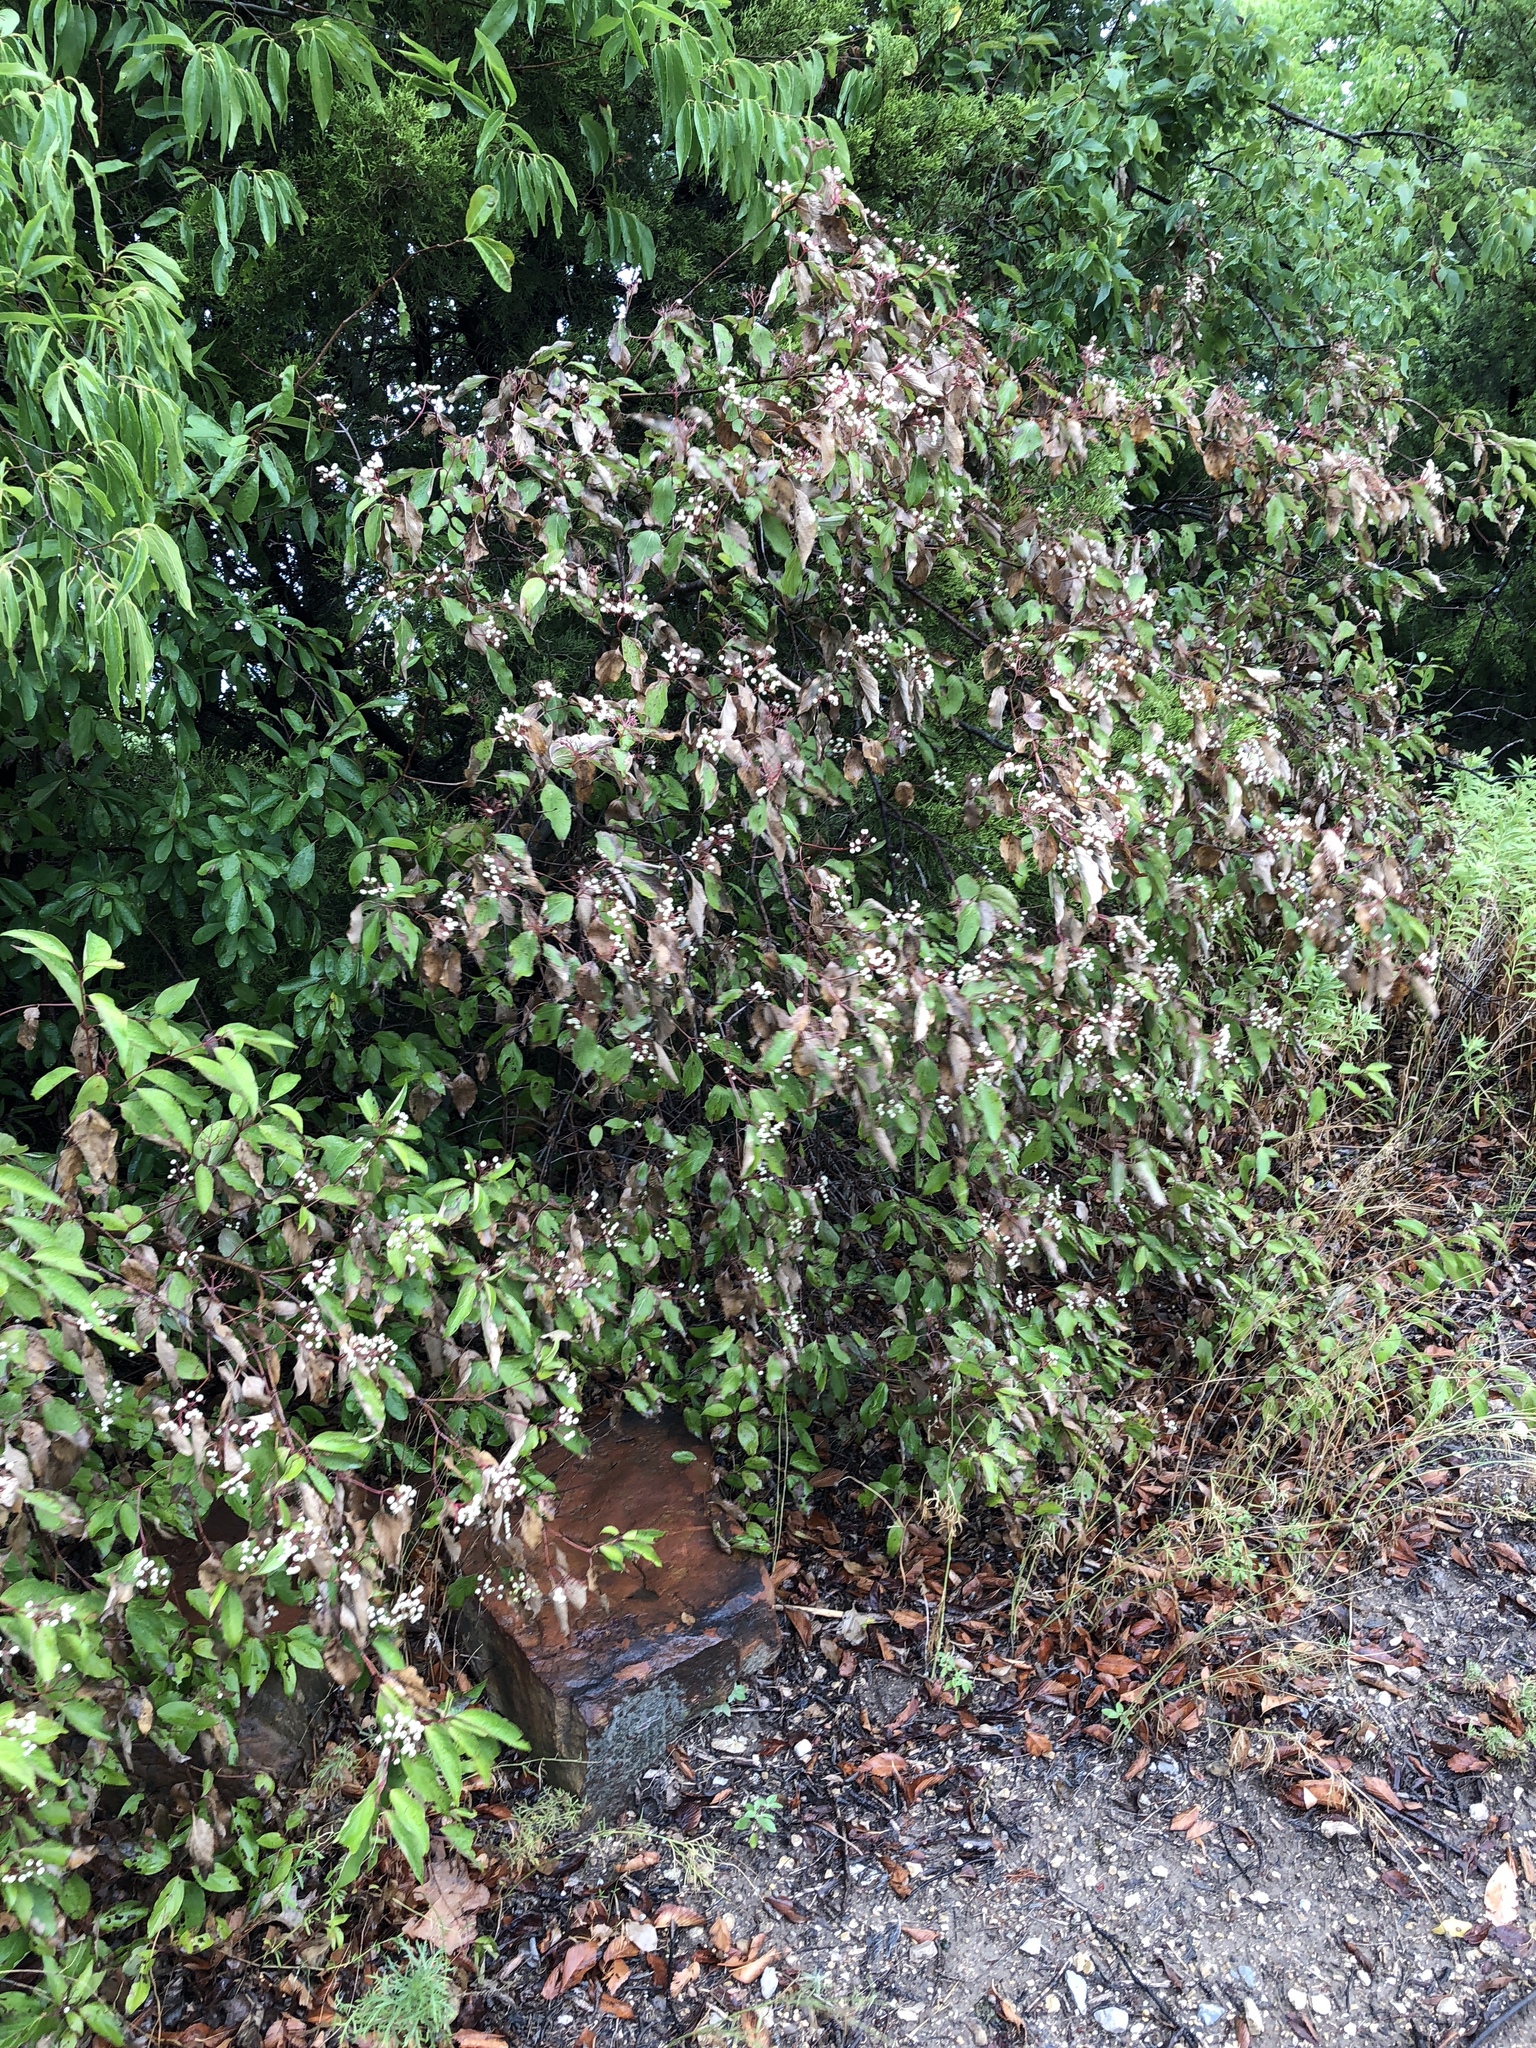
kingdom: Plantae
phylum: Tracheophyta
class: Magnoliopsida
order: Cornales
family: Cornaceae
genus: Cornus
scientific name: Cornus drummondii
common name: Rough-leaf dogwood
